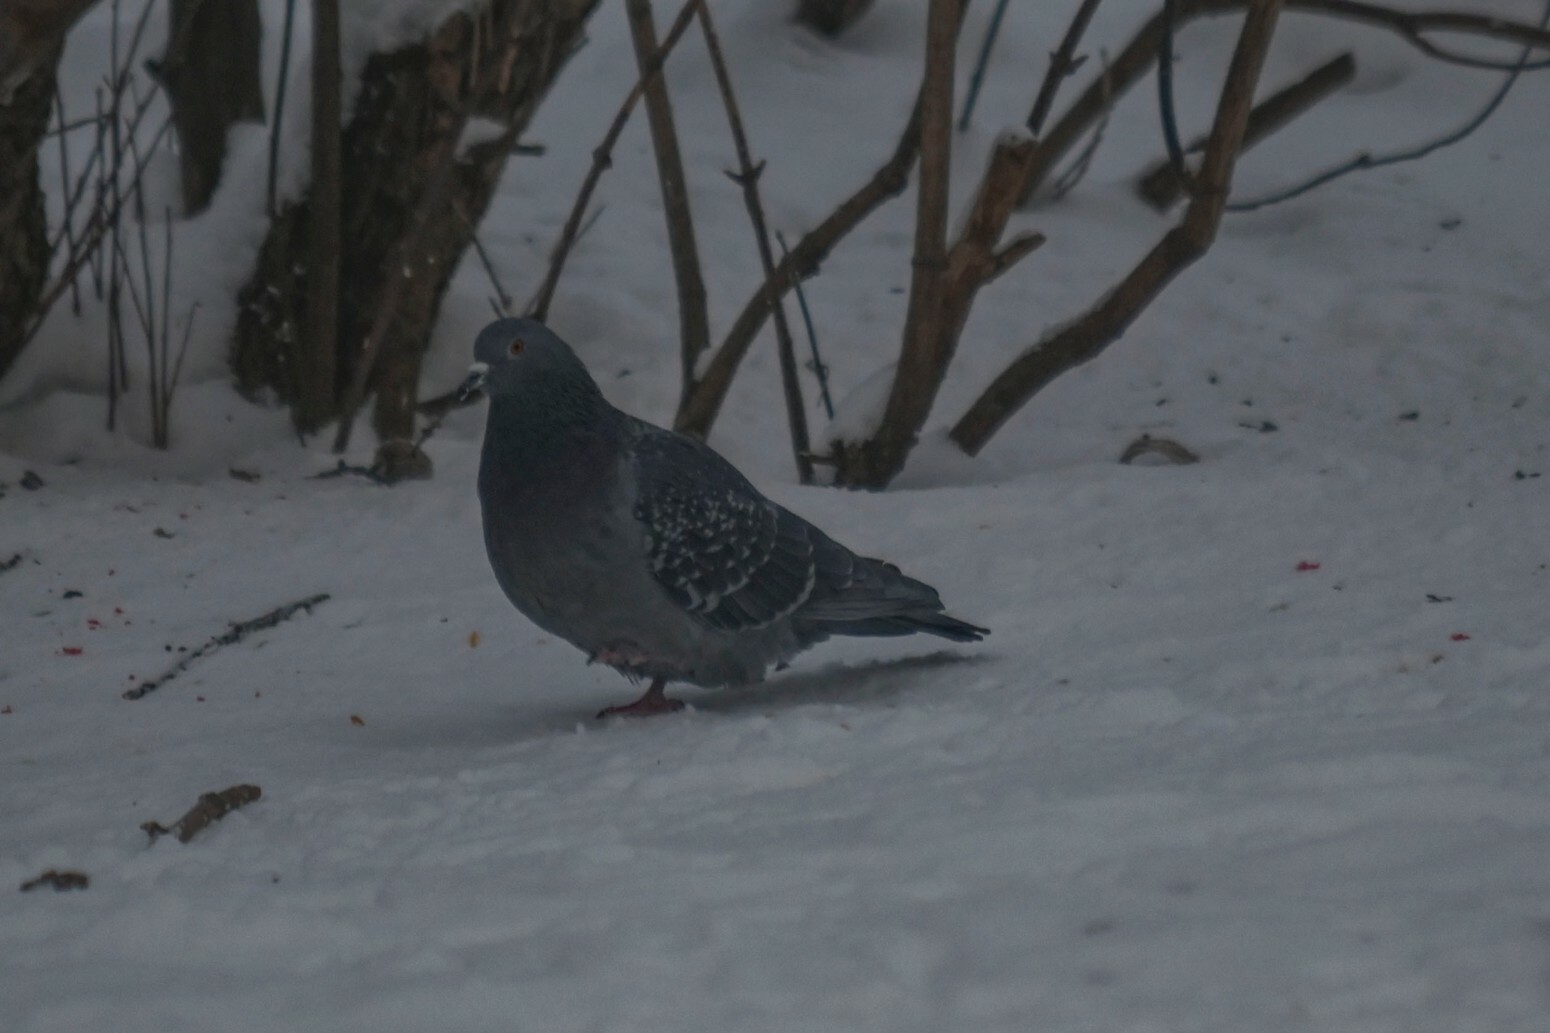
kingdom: Animalia
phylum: Chordata
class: Aves
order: Columbiformes
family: Columbidae
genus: Columba
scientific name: Columba livia
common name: Rock pigeon
